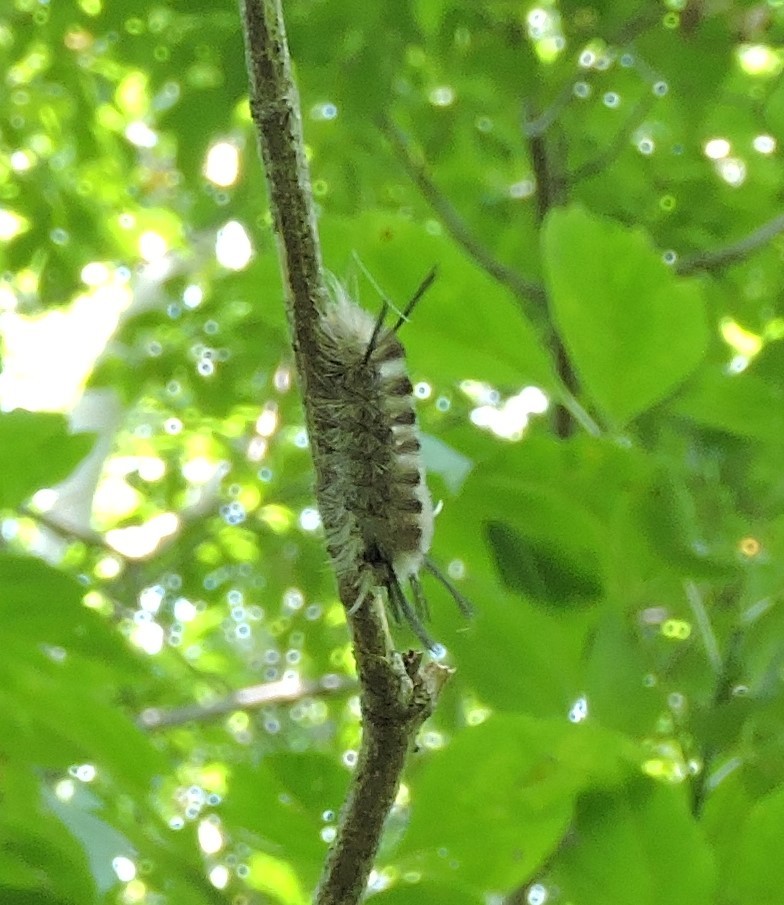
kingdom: Animalia
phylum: Arthropoda
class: Insecta
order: Lepidoptera
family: Erebidae
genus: Halysidota
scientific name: Halysidota tessellaris
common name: Banded tussock moth
